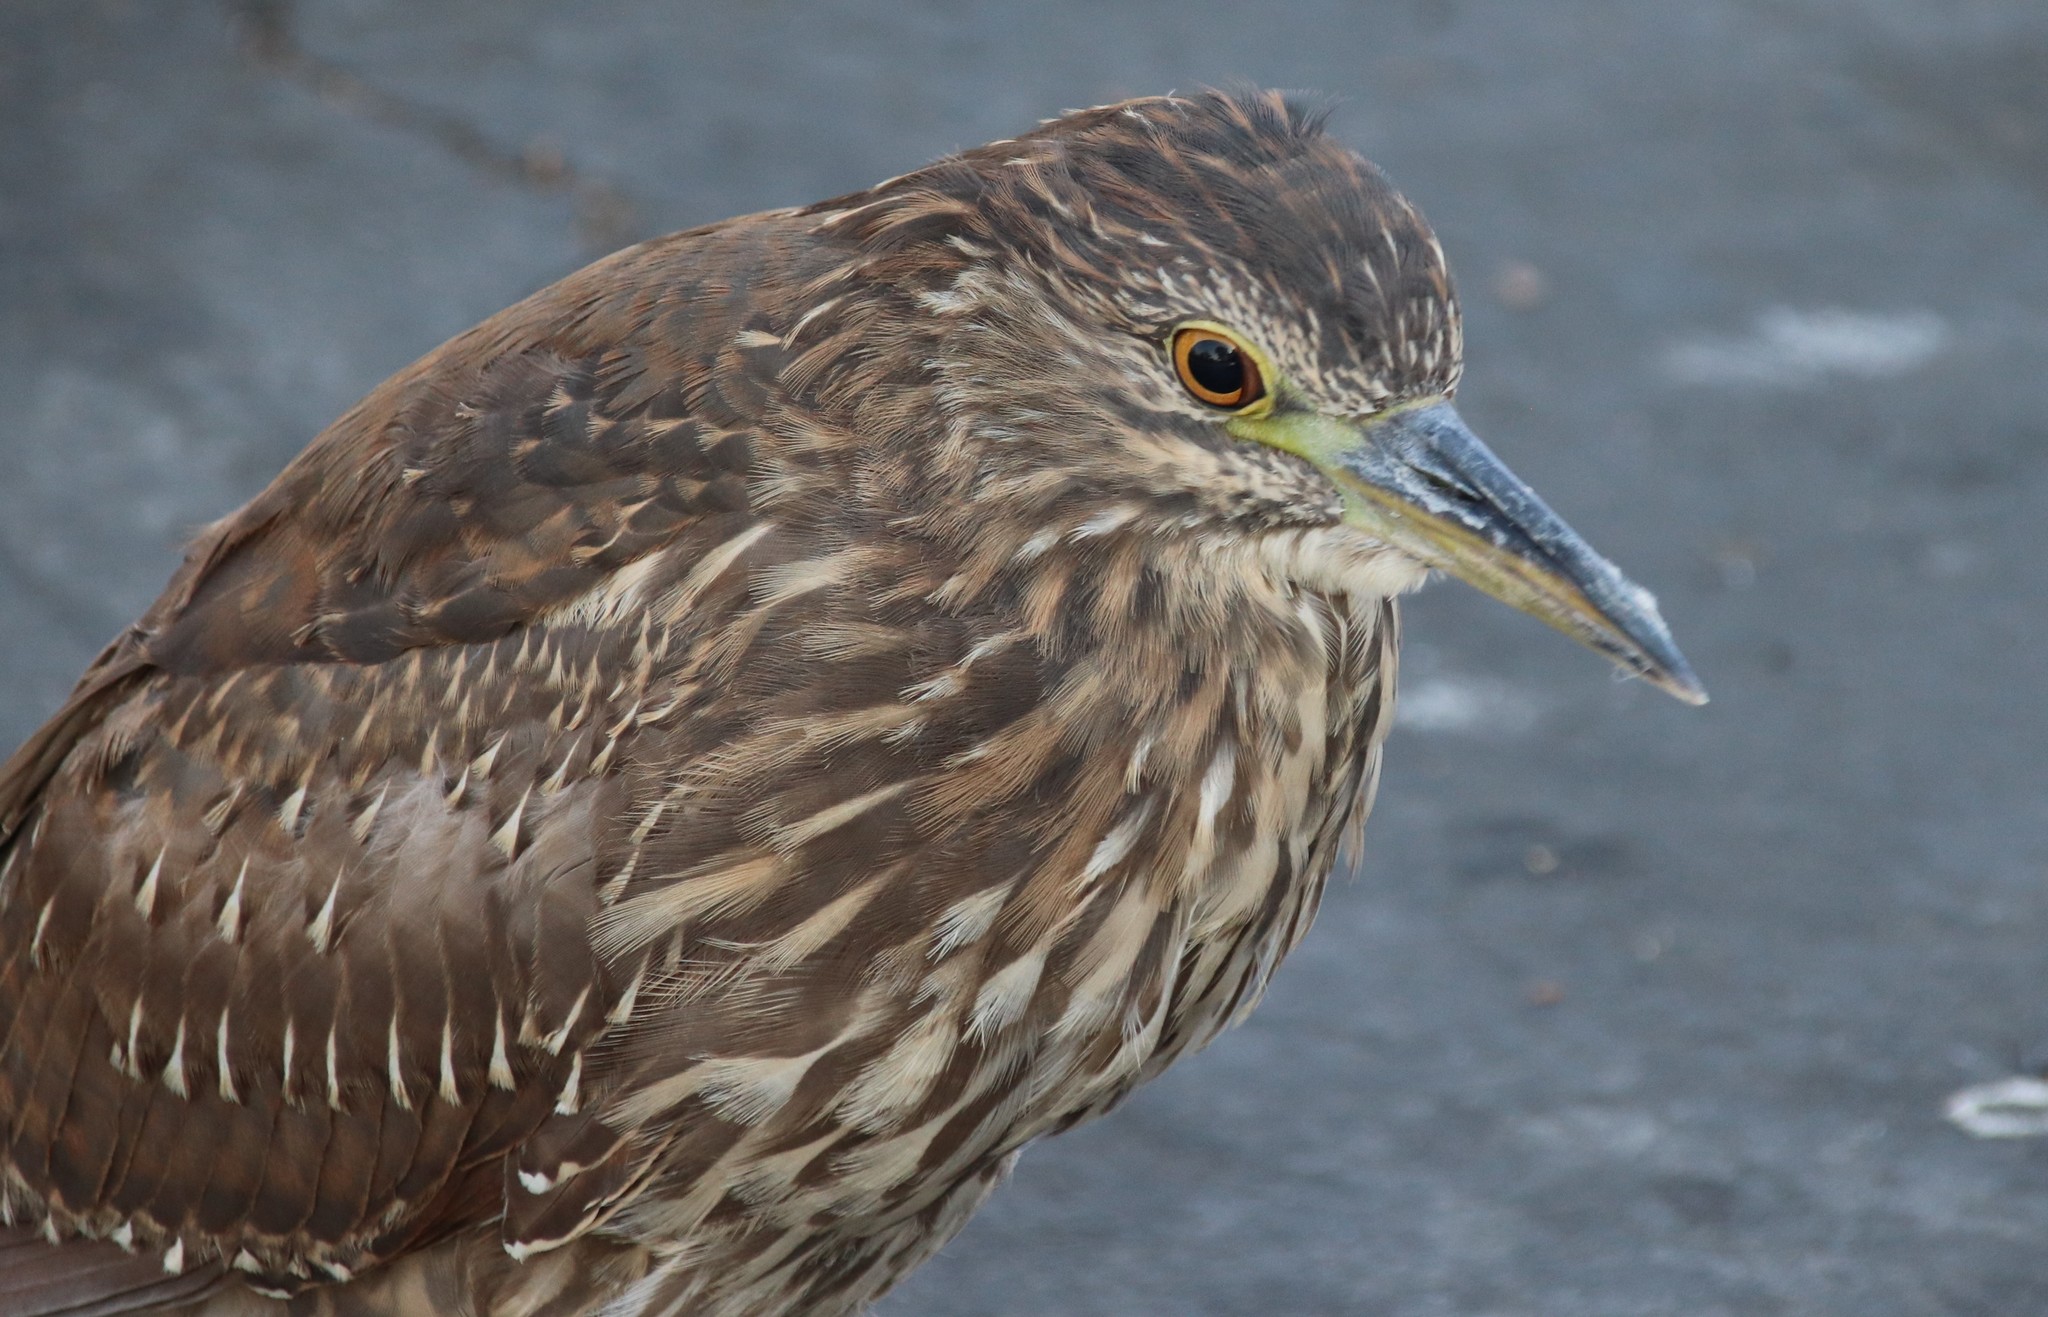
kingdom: Animalia
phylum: Chordata
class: Aves
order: Pelecaniformes
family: Ardeidae
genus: Nycticorax
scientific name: Nycticorax nycticorax
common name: Black-crowned night heron
